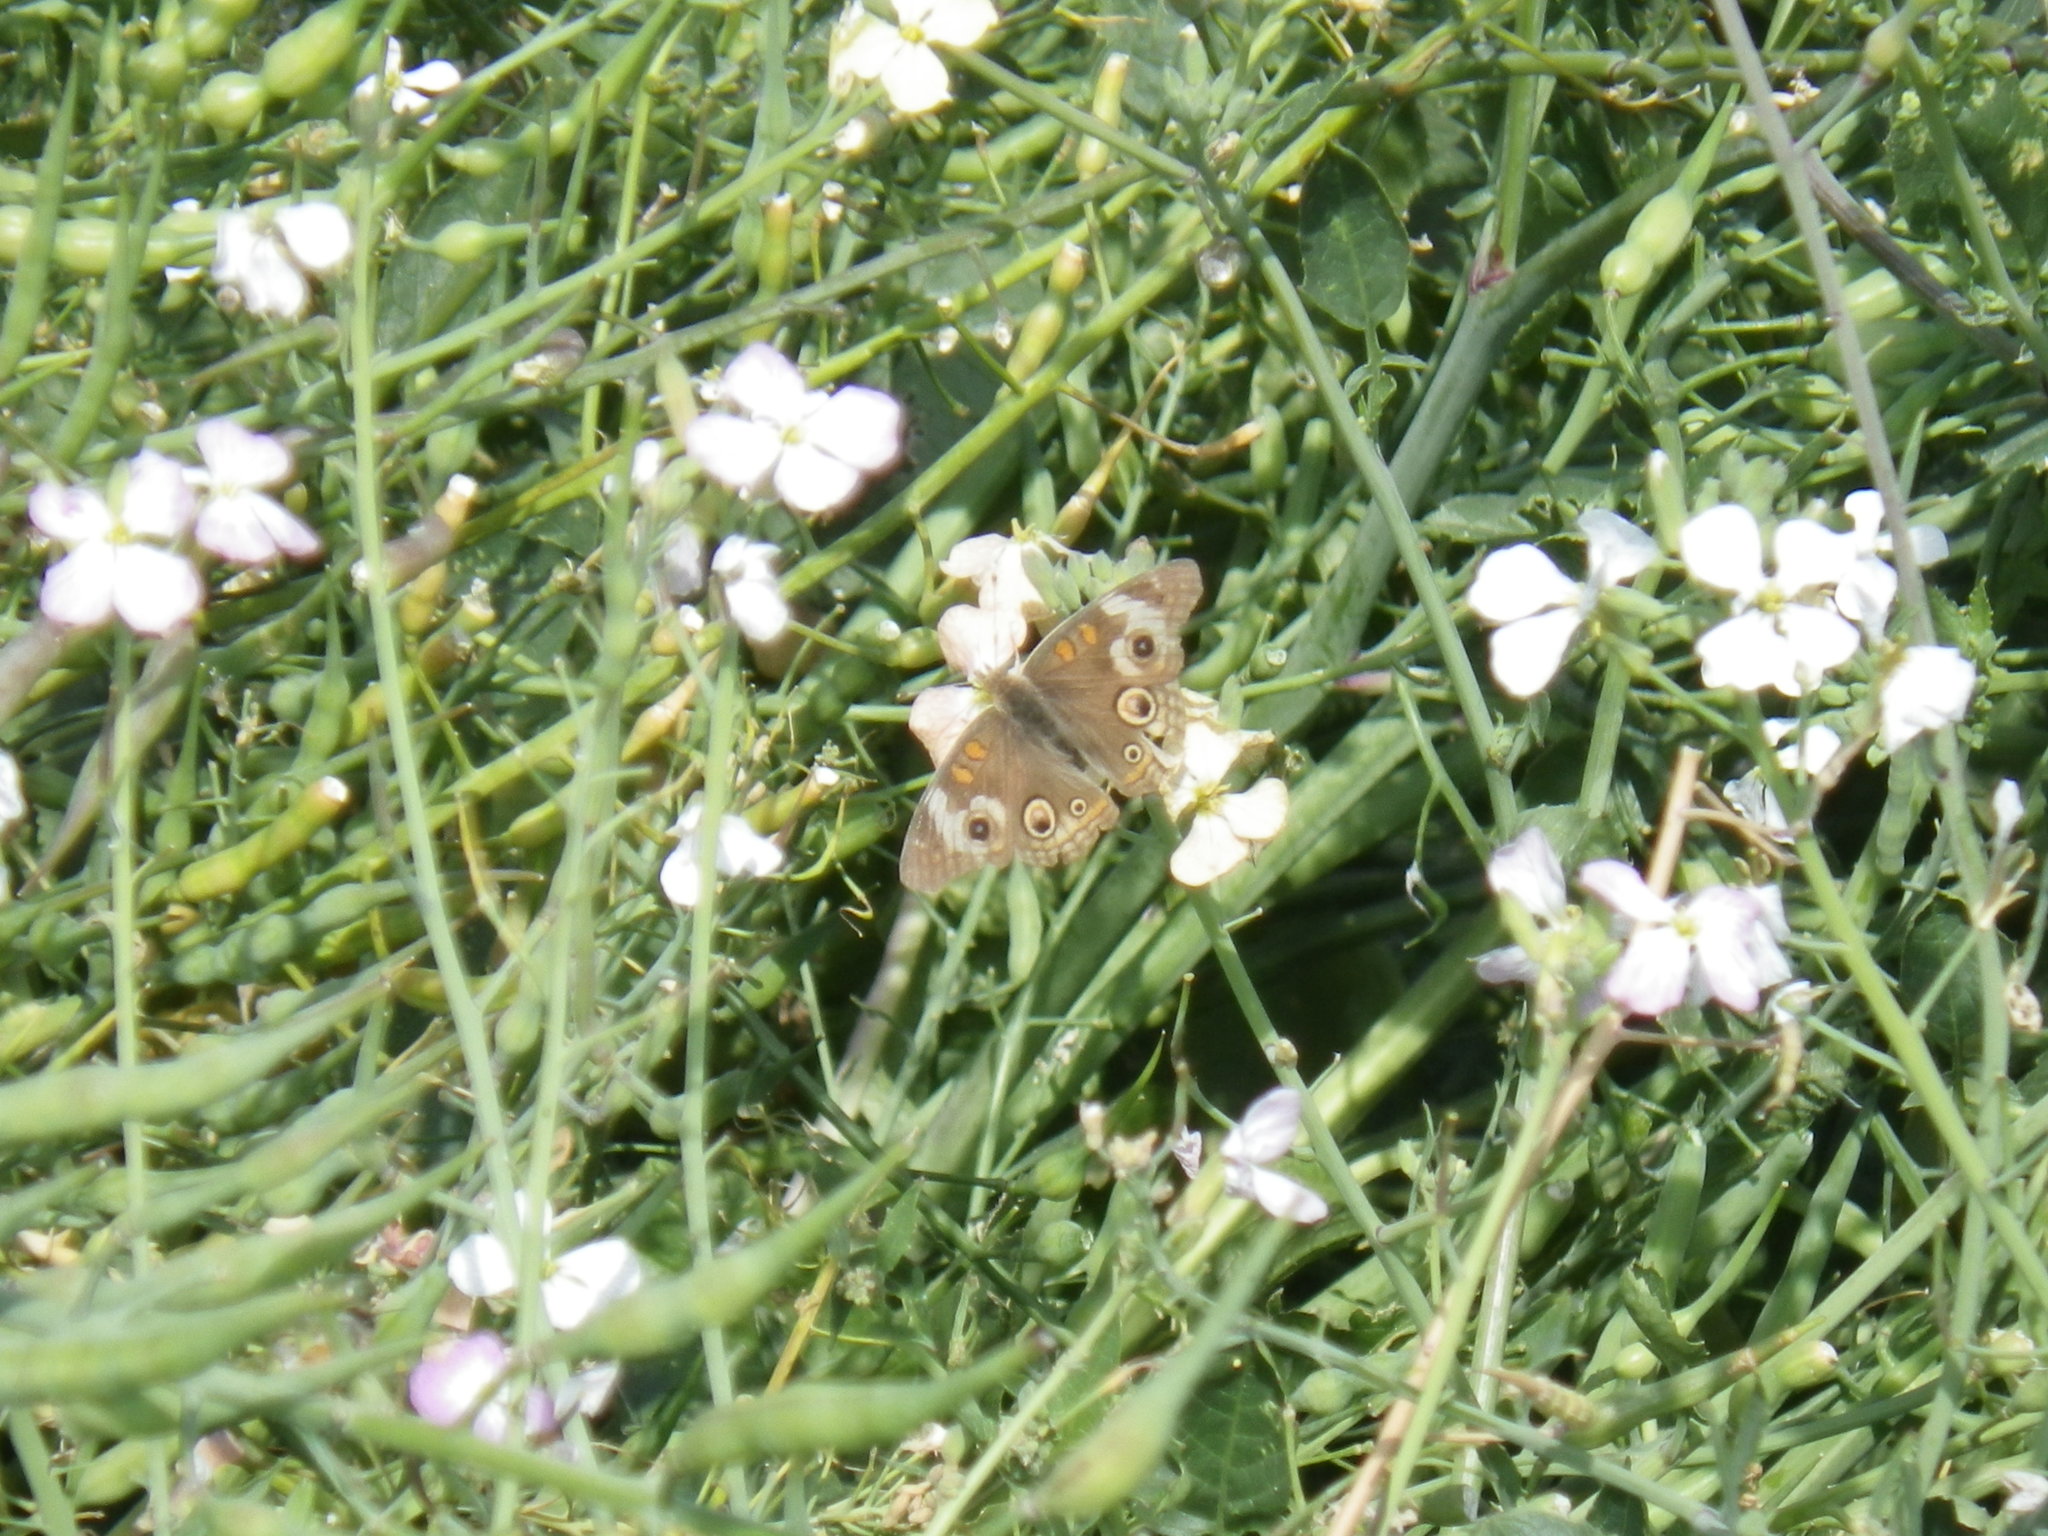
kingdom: Animalia
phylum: Arthropoda
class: Insecta
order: Lepidoptera
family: Nymphalidae
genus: Junonia
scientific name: Junonia grisea
